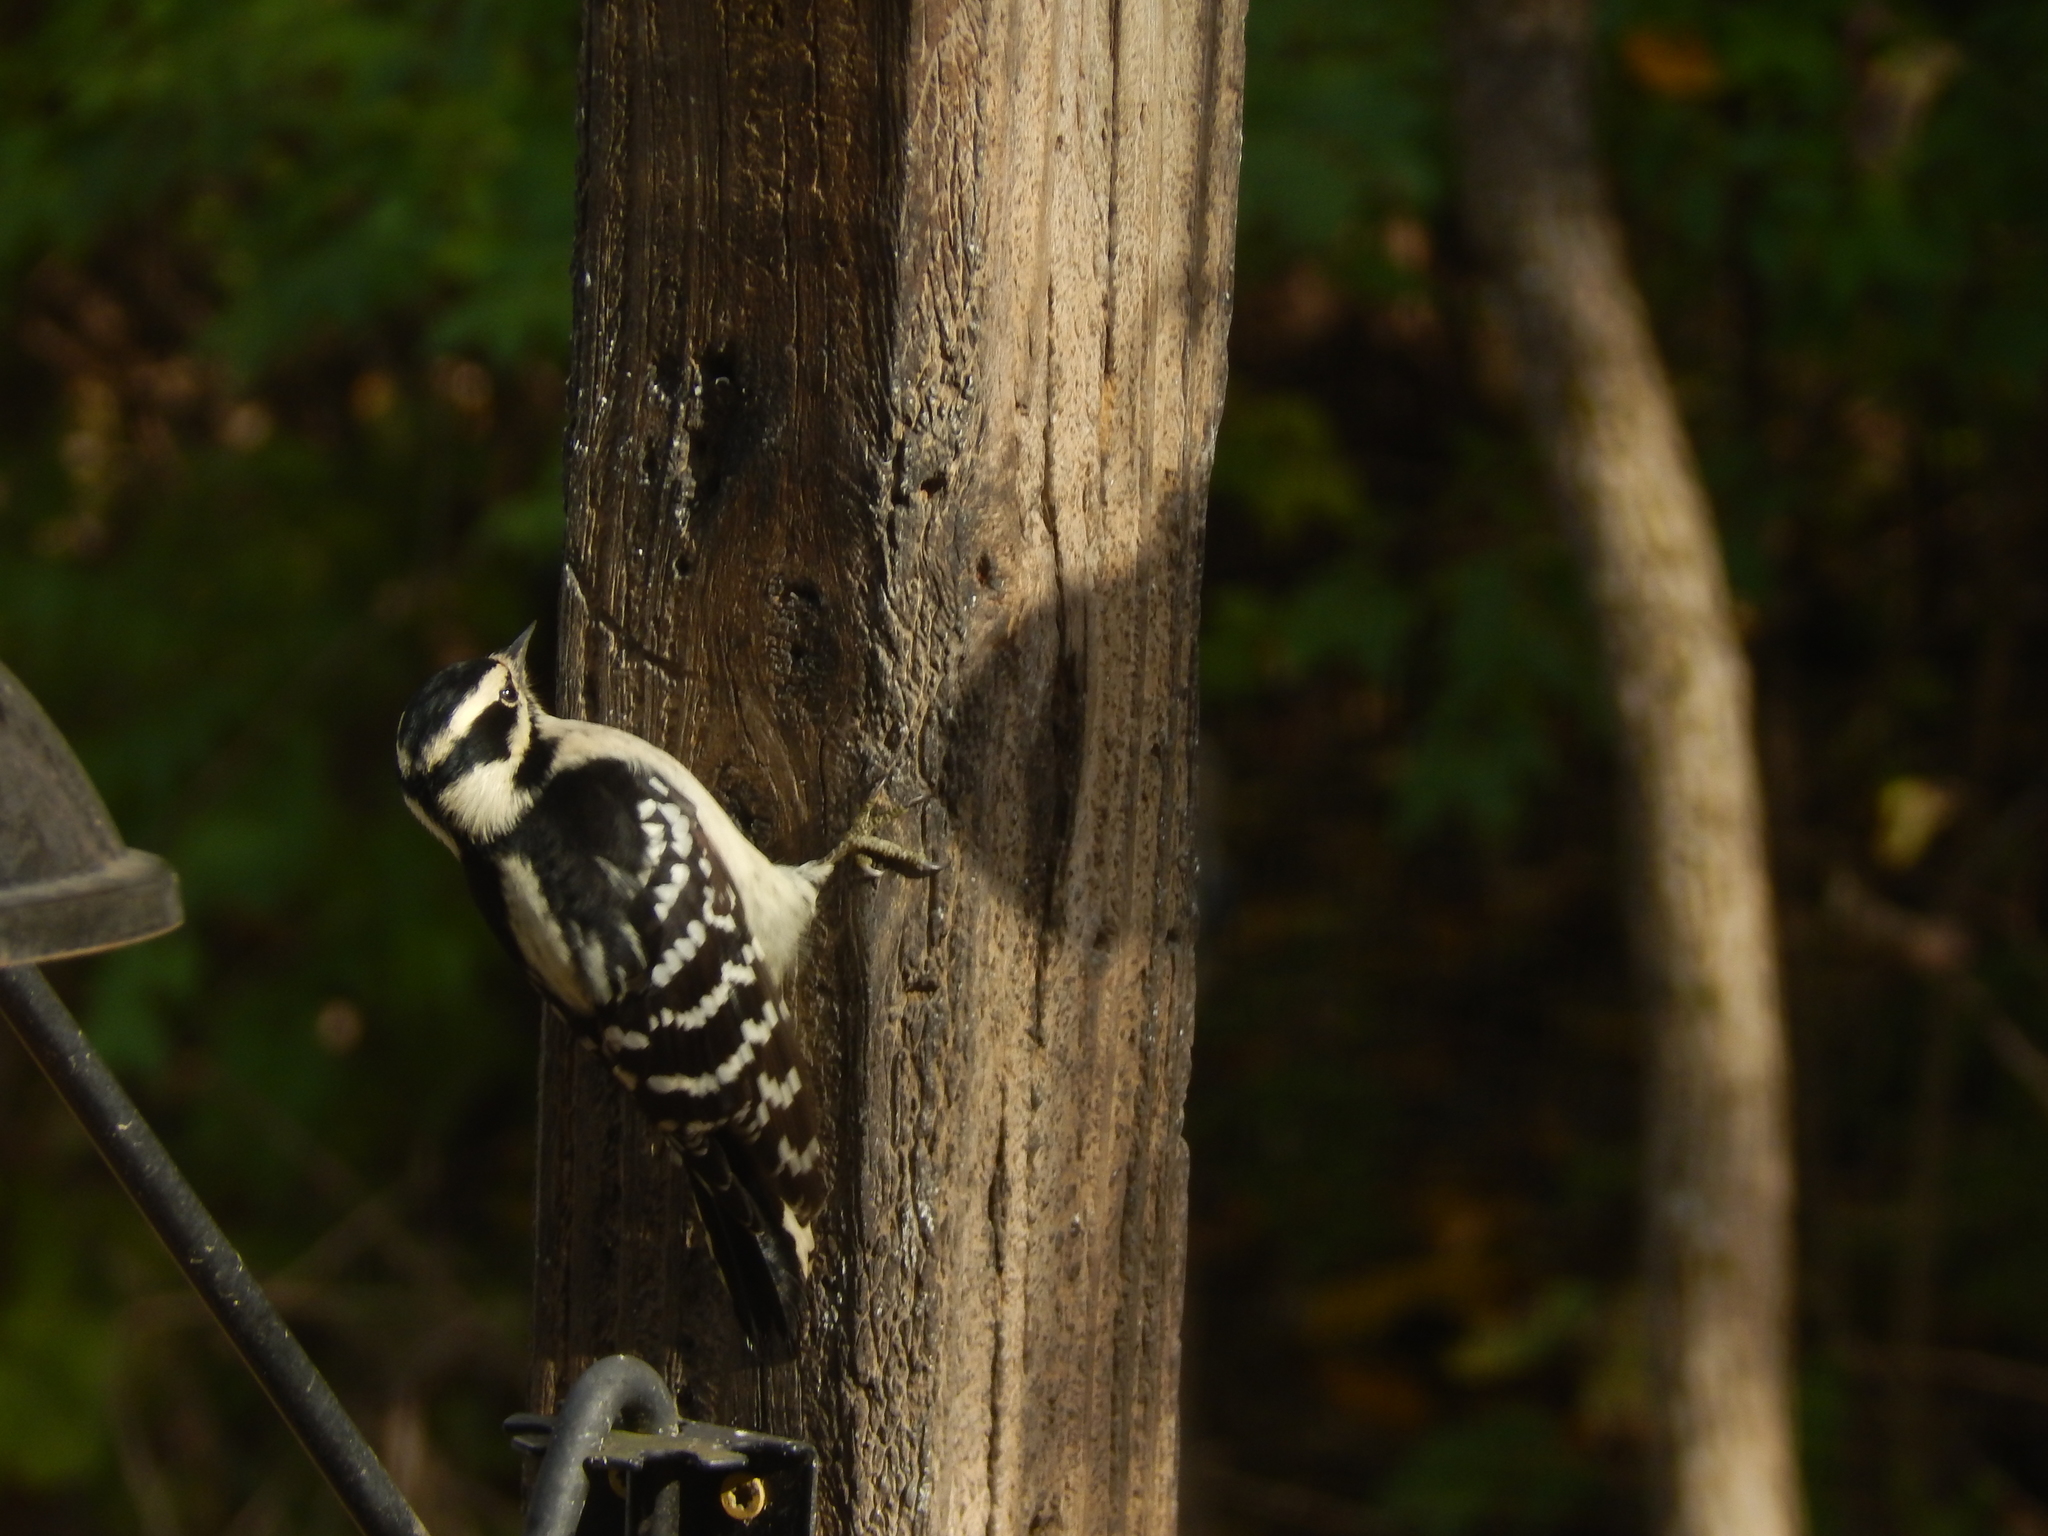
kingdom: Animalia
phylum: Chordata
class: Aves
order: Piciformes
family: Picidae
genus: Dryobates
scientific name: Dryobates pubescens
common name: Downy woodpecker
